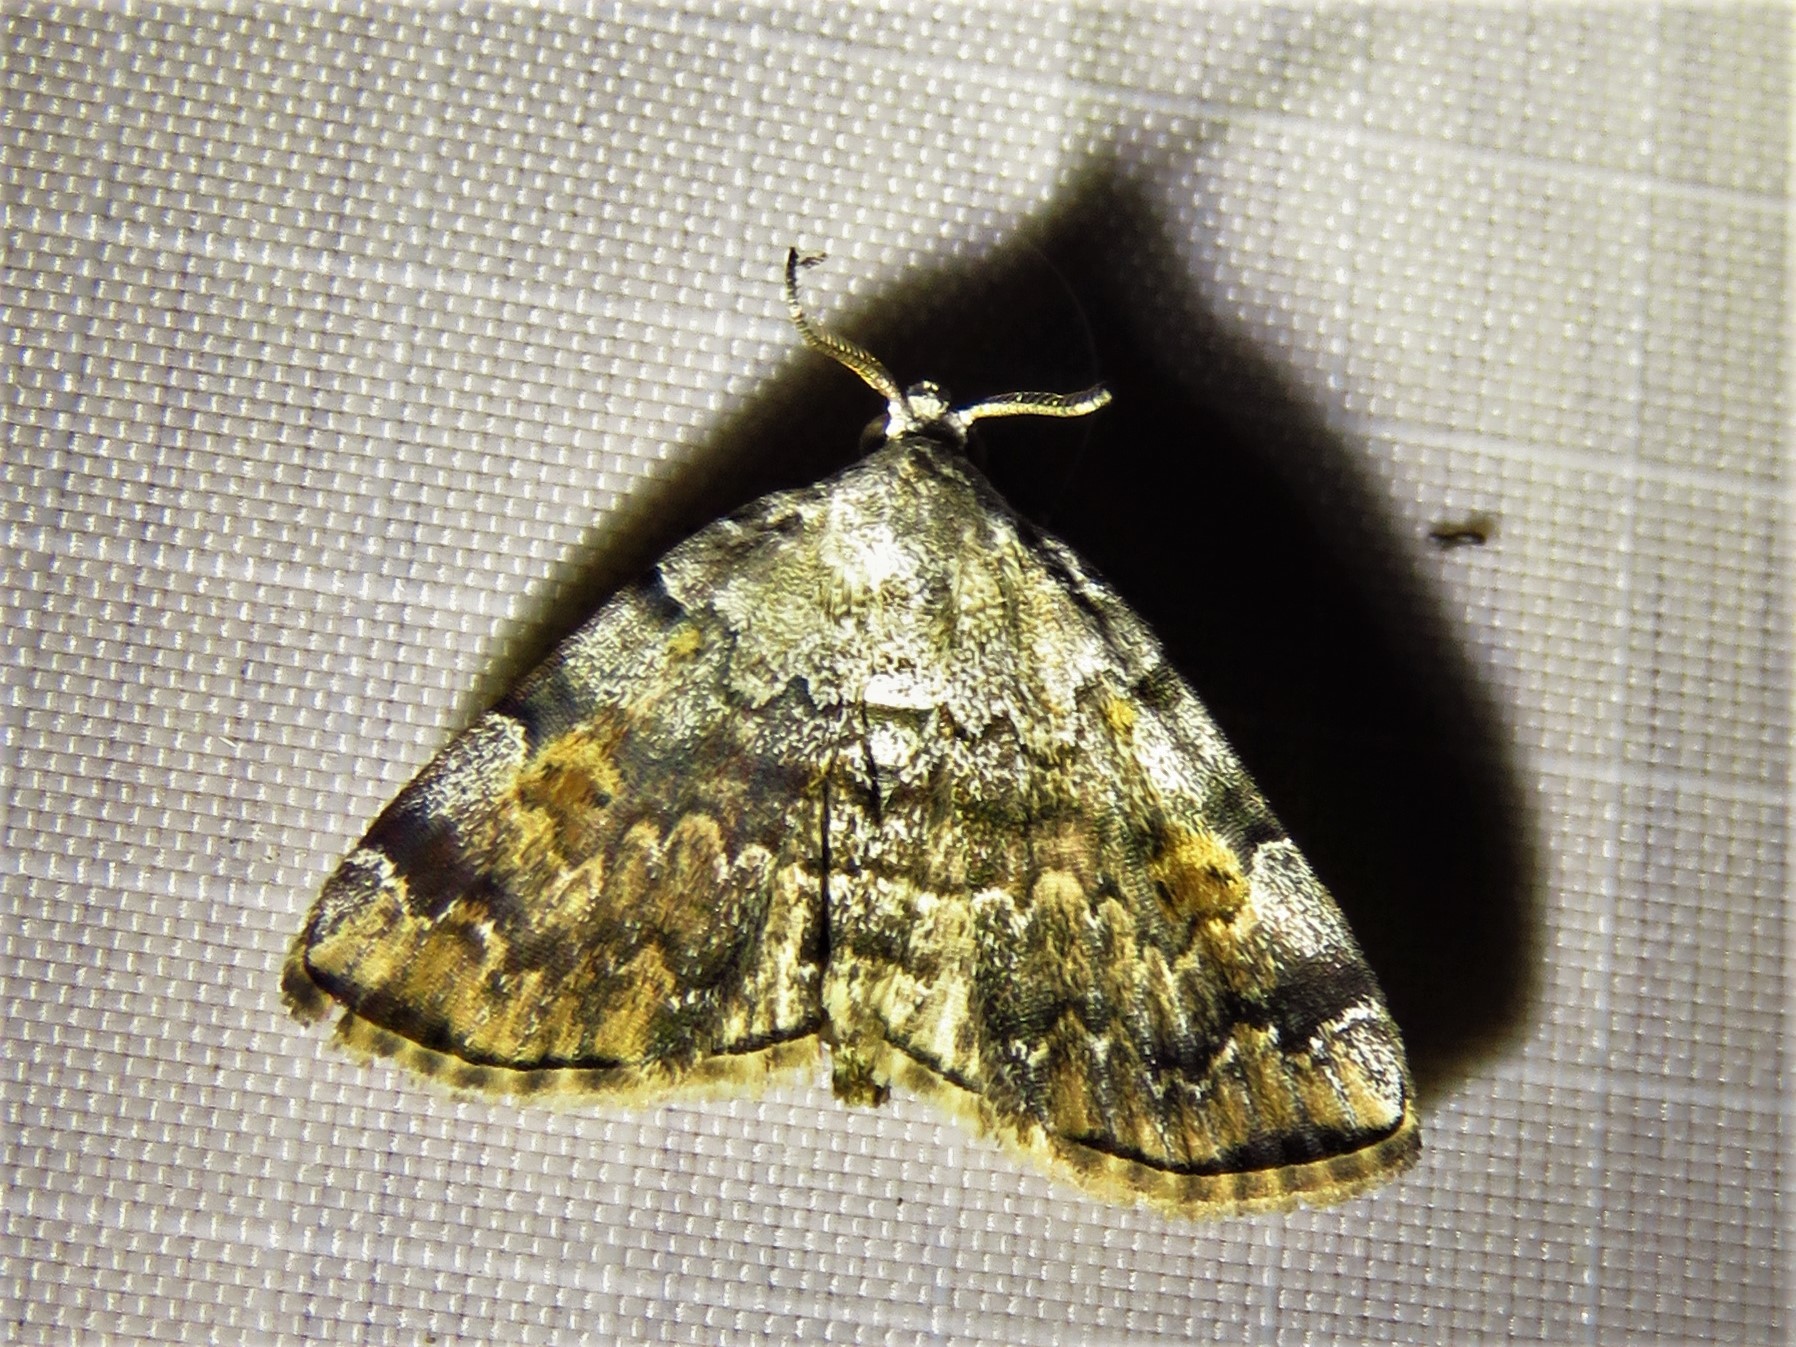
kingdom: Animalia
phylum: Arthropoda
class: Insecta
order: Lepidoptera
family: Erebidae
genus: Idia
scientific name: Idia americalis
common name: American idia moth
